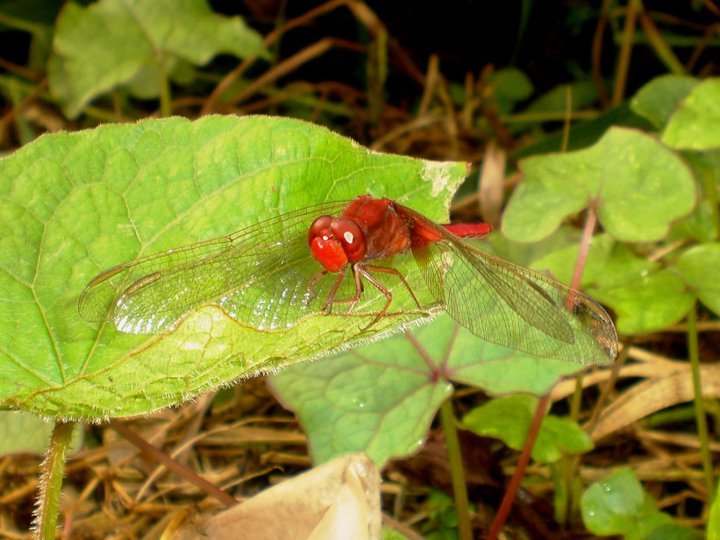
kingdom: Animalia
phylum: Arthropoda
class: Insecta
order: Odonata
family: Libellulidae
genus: Crocothemis
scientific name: Crocothemis servilia
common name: Scarlet skimmer
